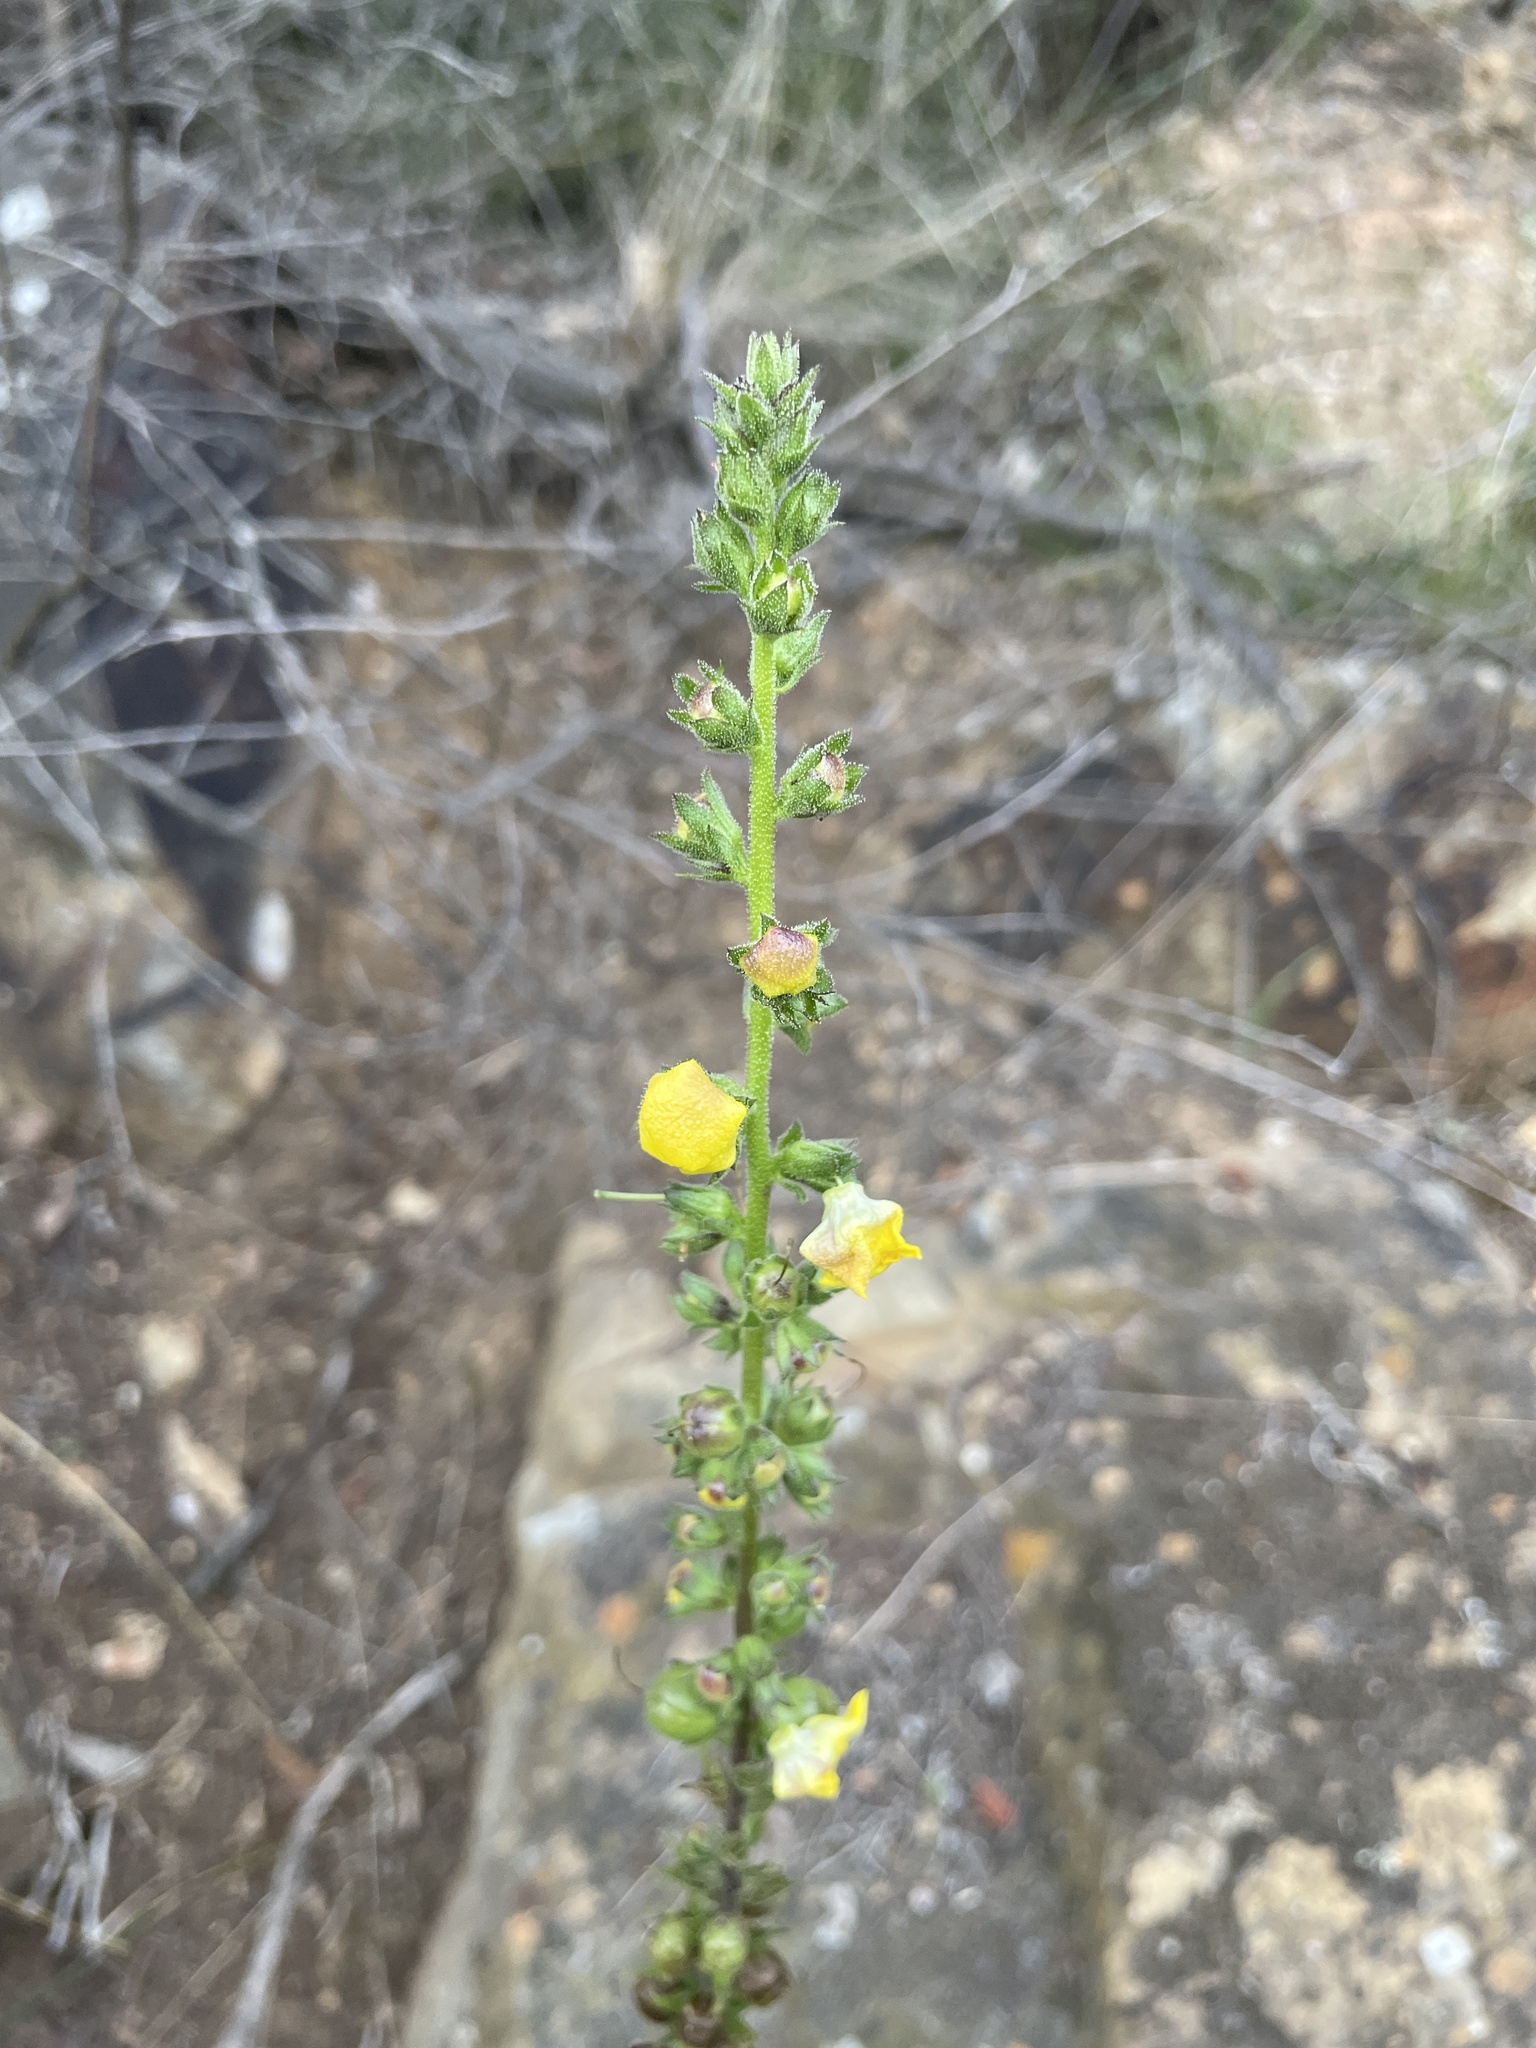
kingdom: Plantae
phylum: Tracheophyta
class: Magnoliopsida
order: Lamiales
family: Scrophulariaceae
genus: Verbascum
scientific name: Verbascum virgatum
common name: Twiggy mullein
